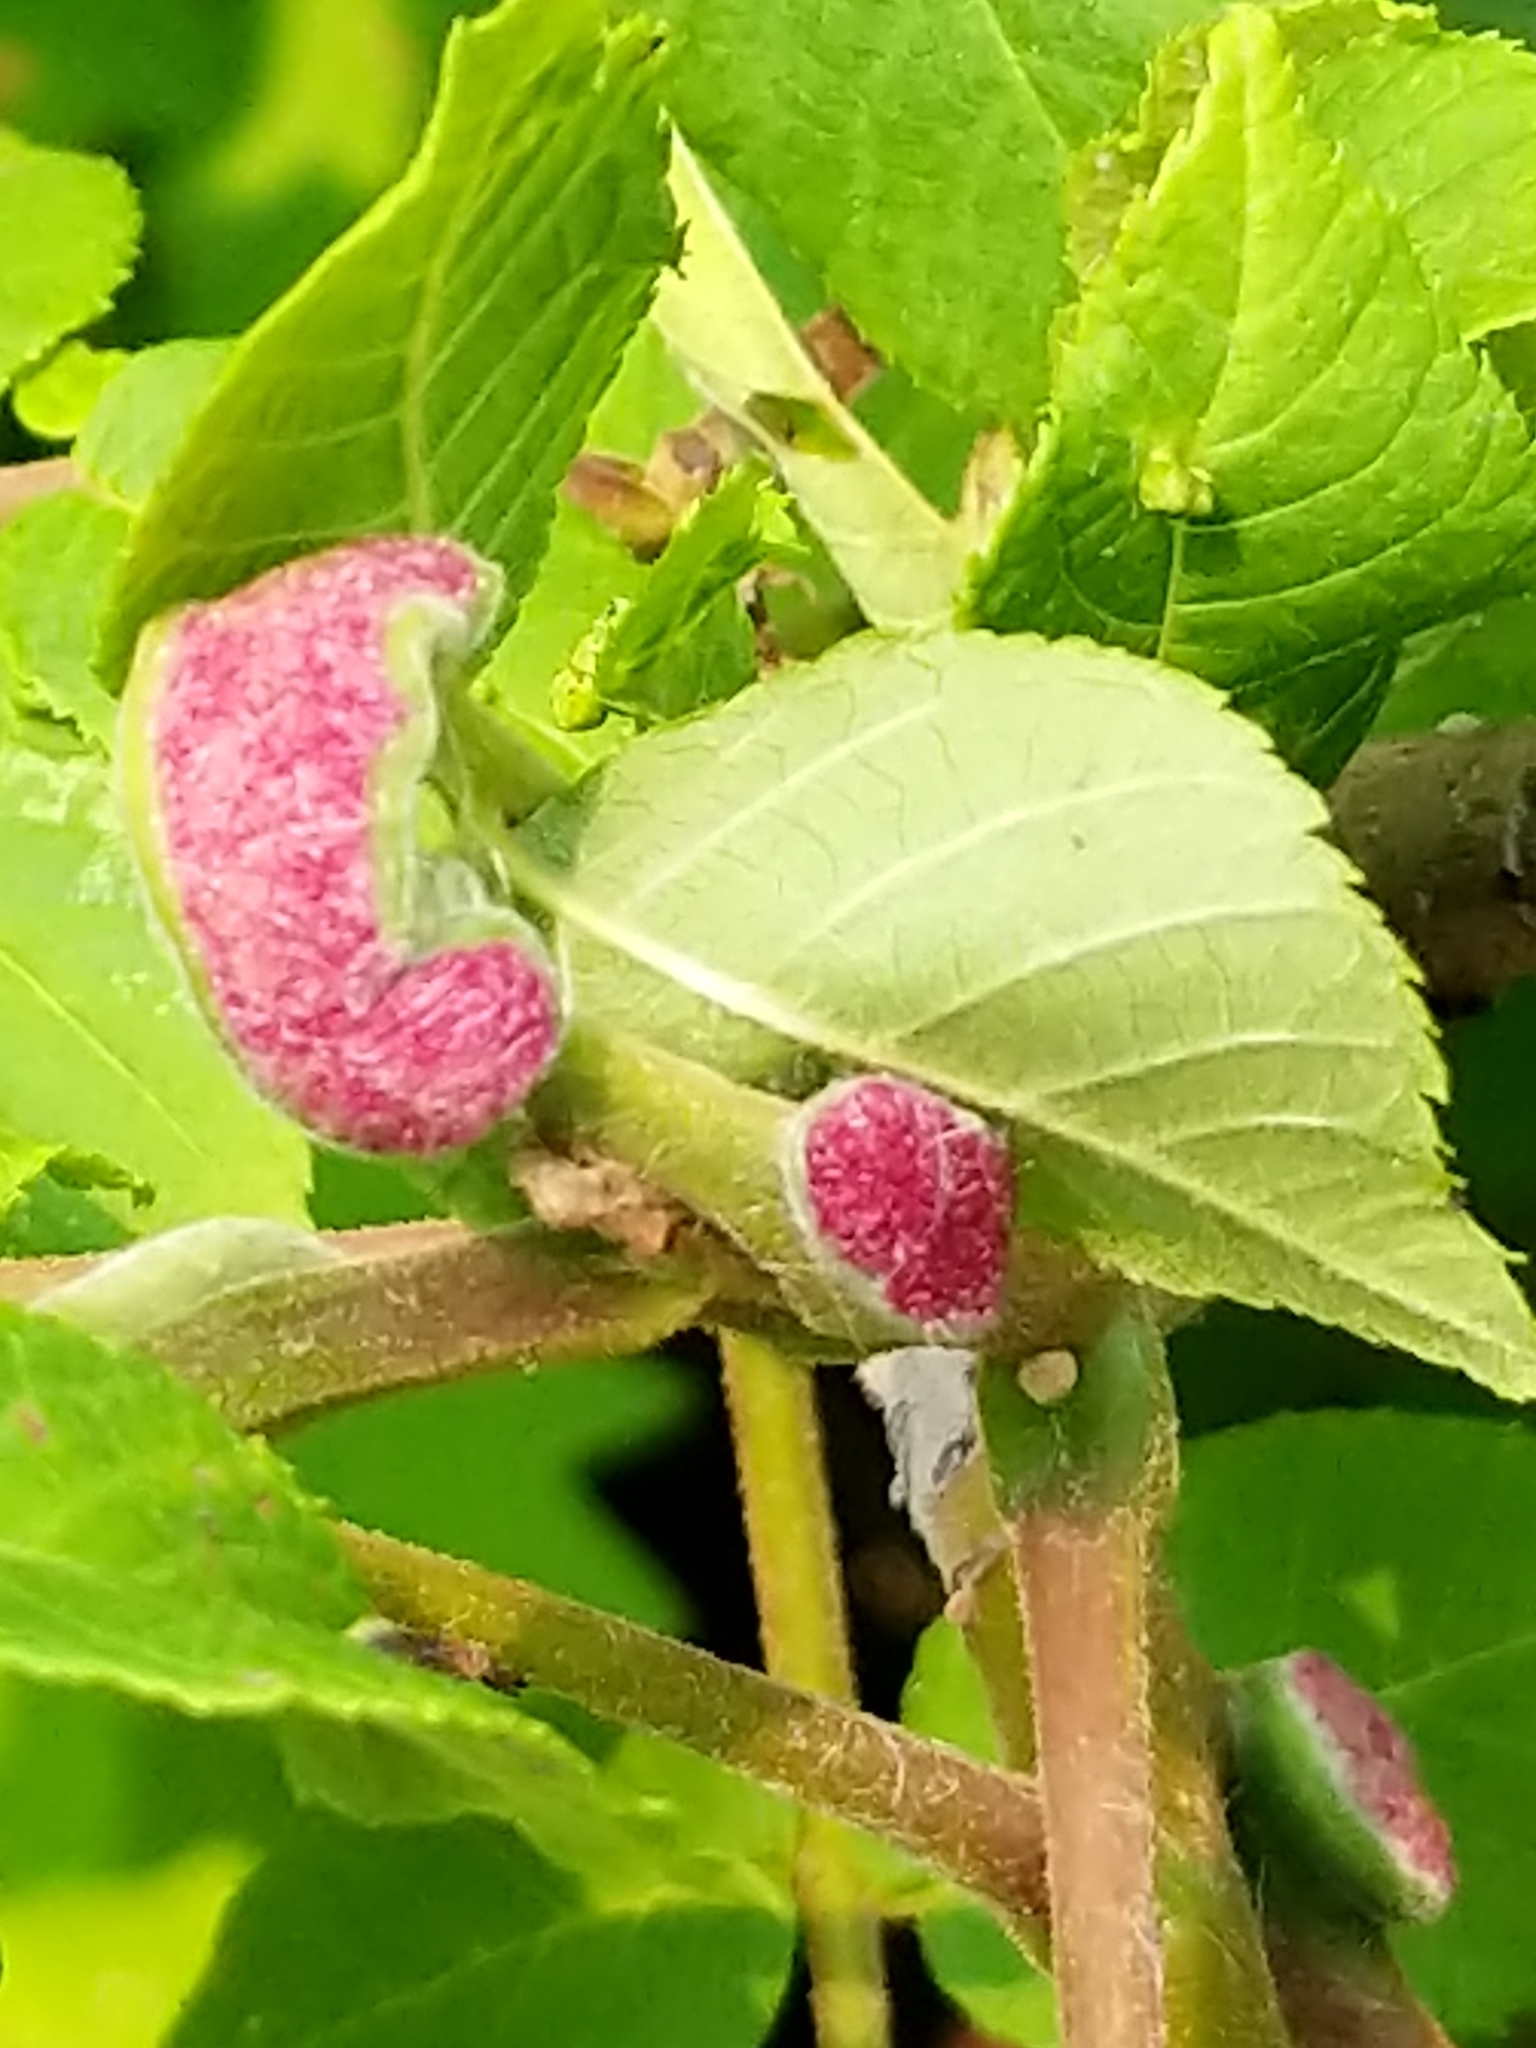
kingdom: Animalia
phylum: Arthropoda
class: Arachnida
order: Trombidiformes
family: Eriophyidae
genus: Aceria
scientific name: Aceria
